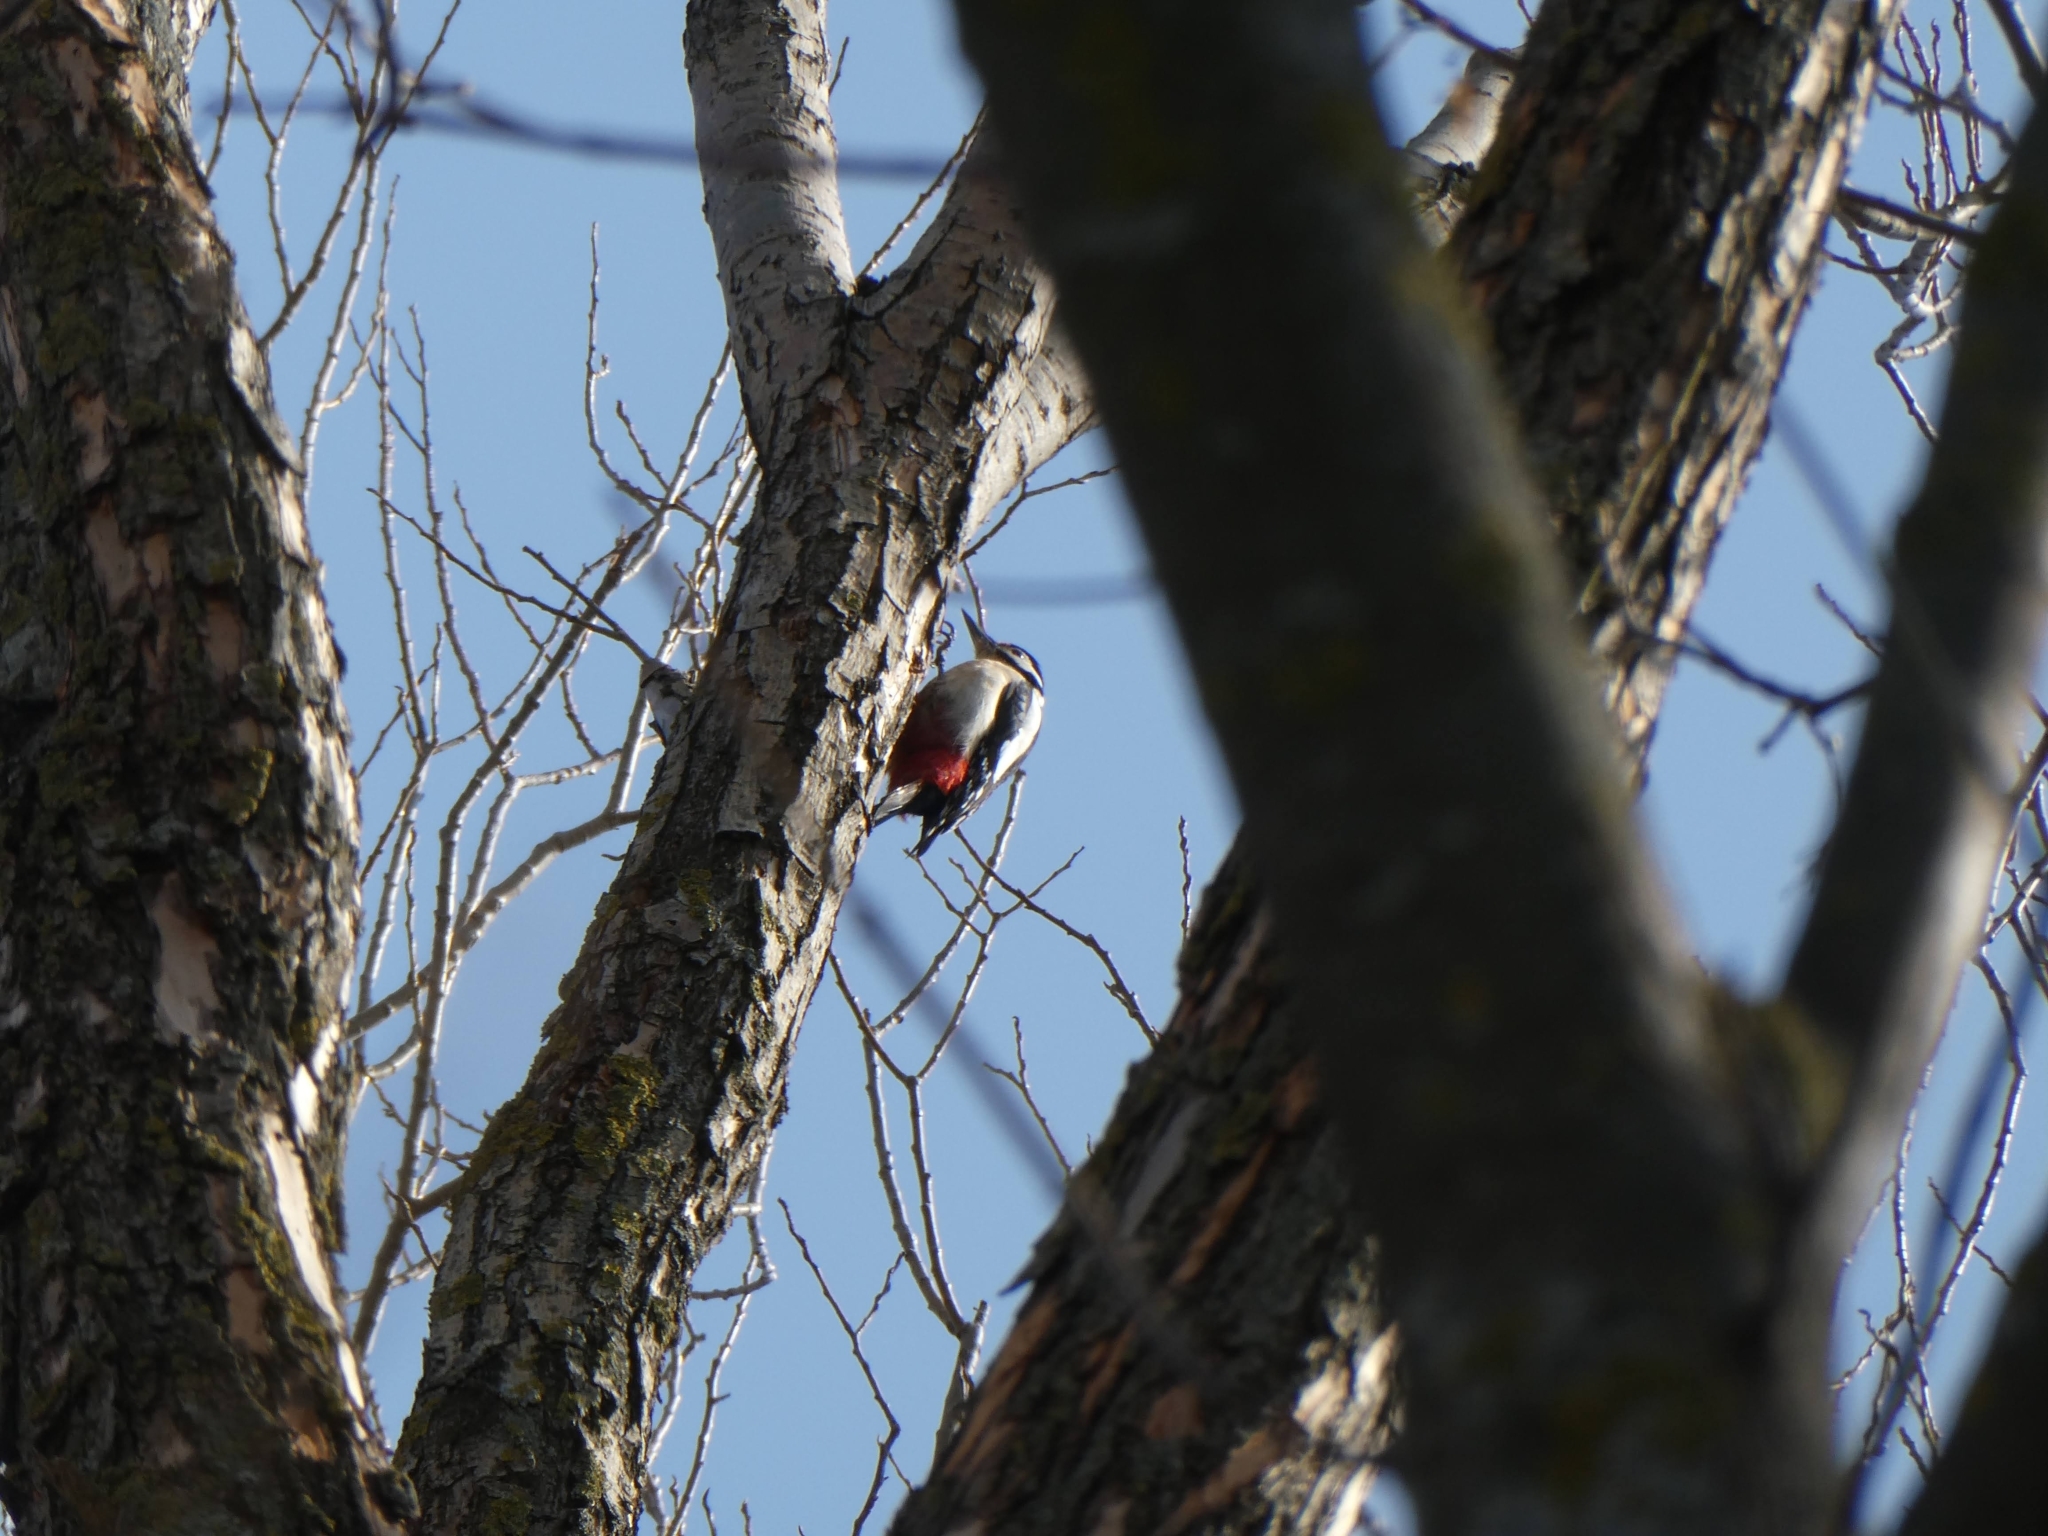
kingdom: Animalia
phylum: Chordata
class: Aves
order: Piciformes
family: Picidae
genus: Dendrocopos
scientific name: Dendrocopos major
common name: Great spotted woodpecker
